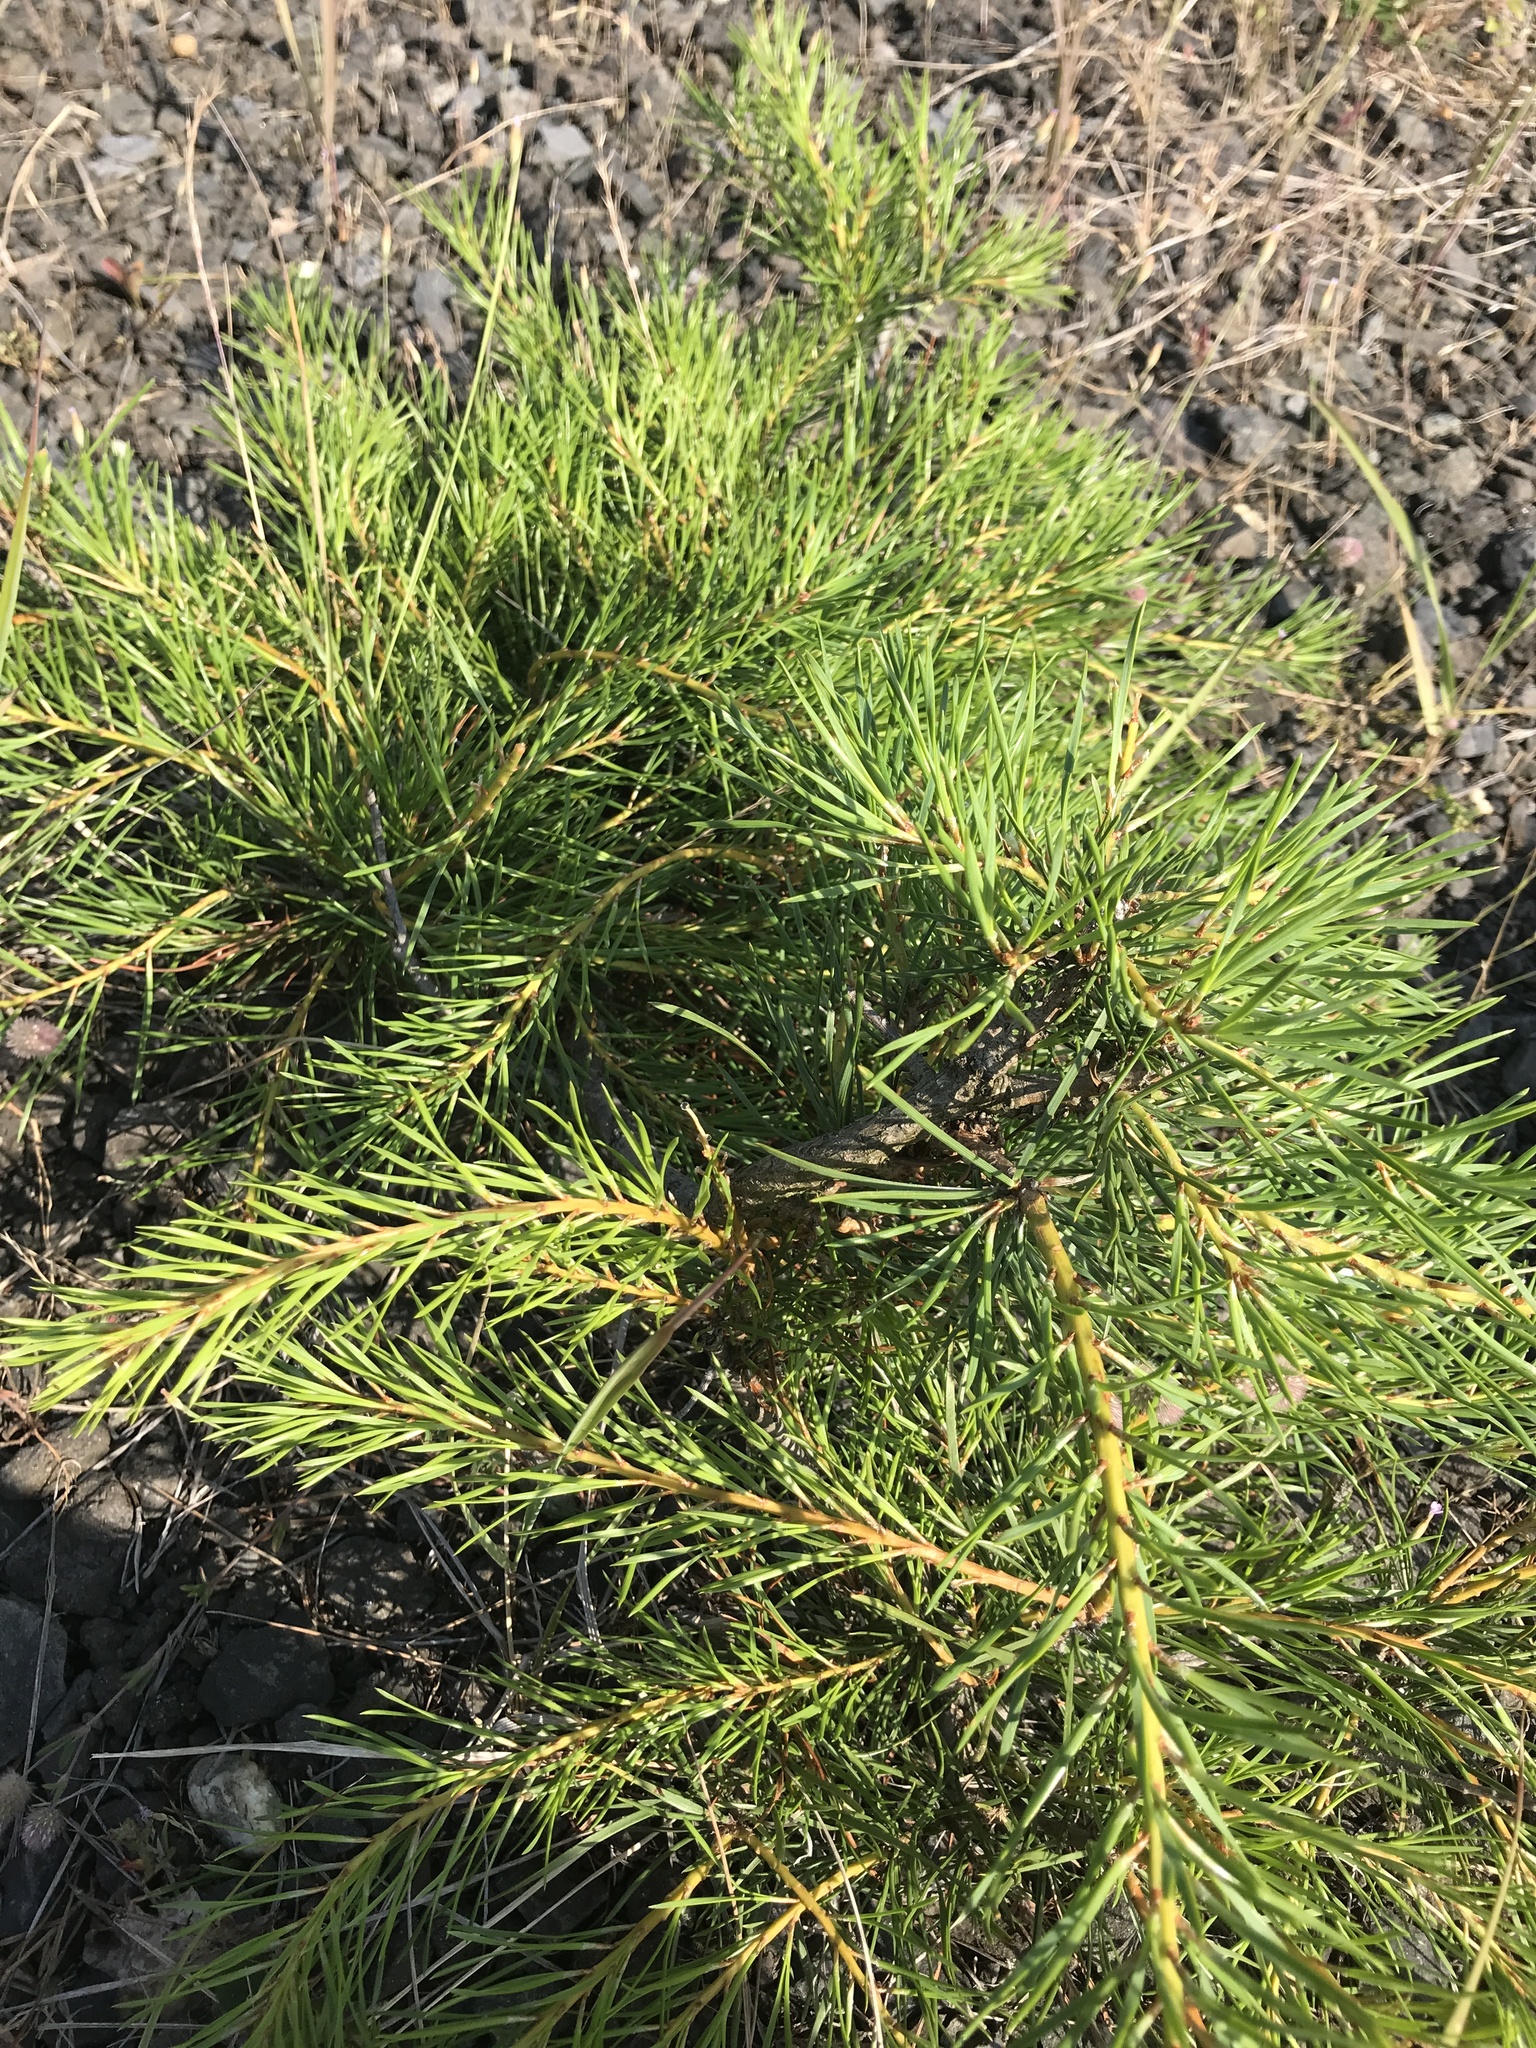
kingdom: Plantae
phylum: Tracheophyta
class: Pinopsida
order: Pinales
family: Pinaceae
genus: Pinus
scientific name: Pinus sylvestris
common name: Scots pine
